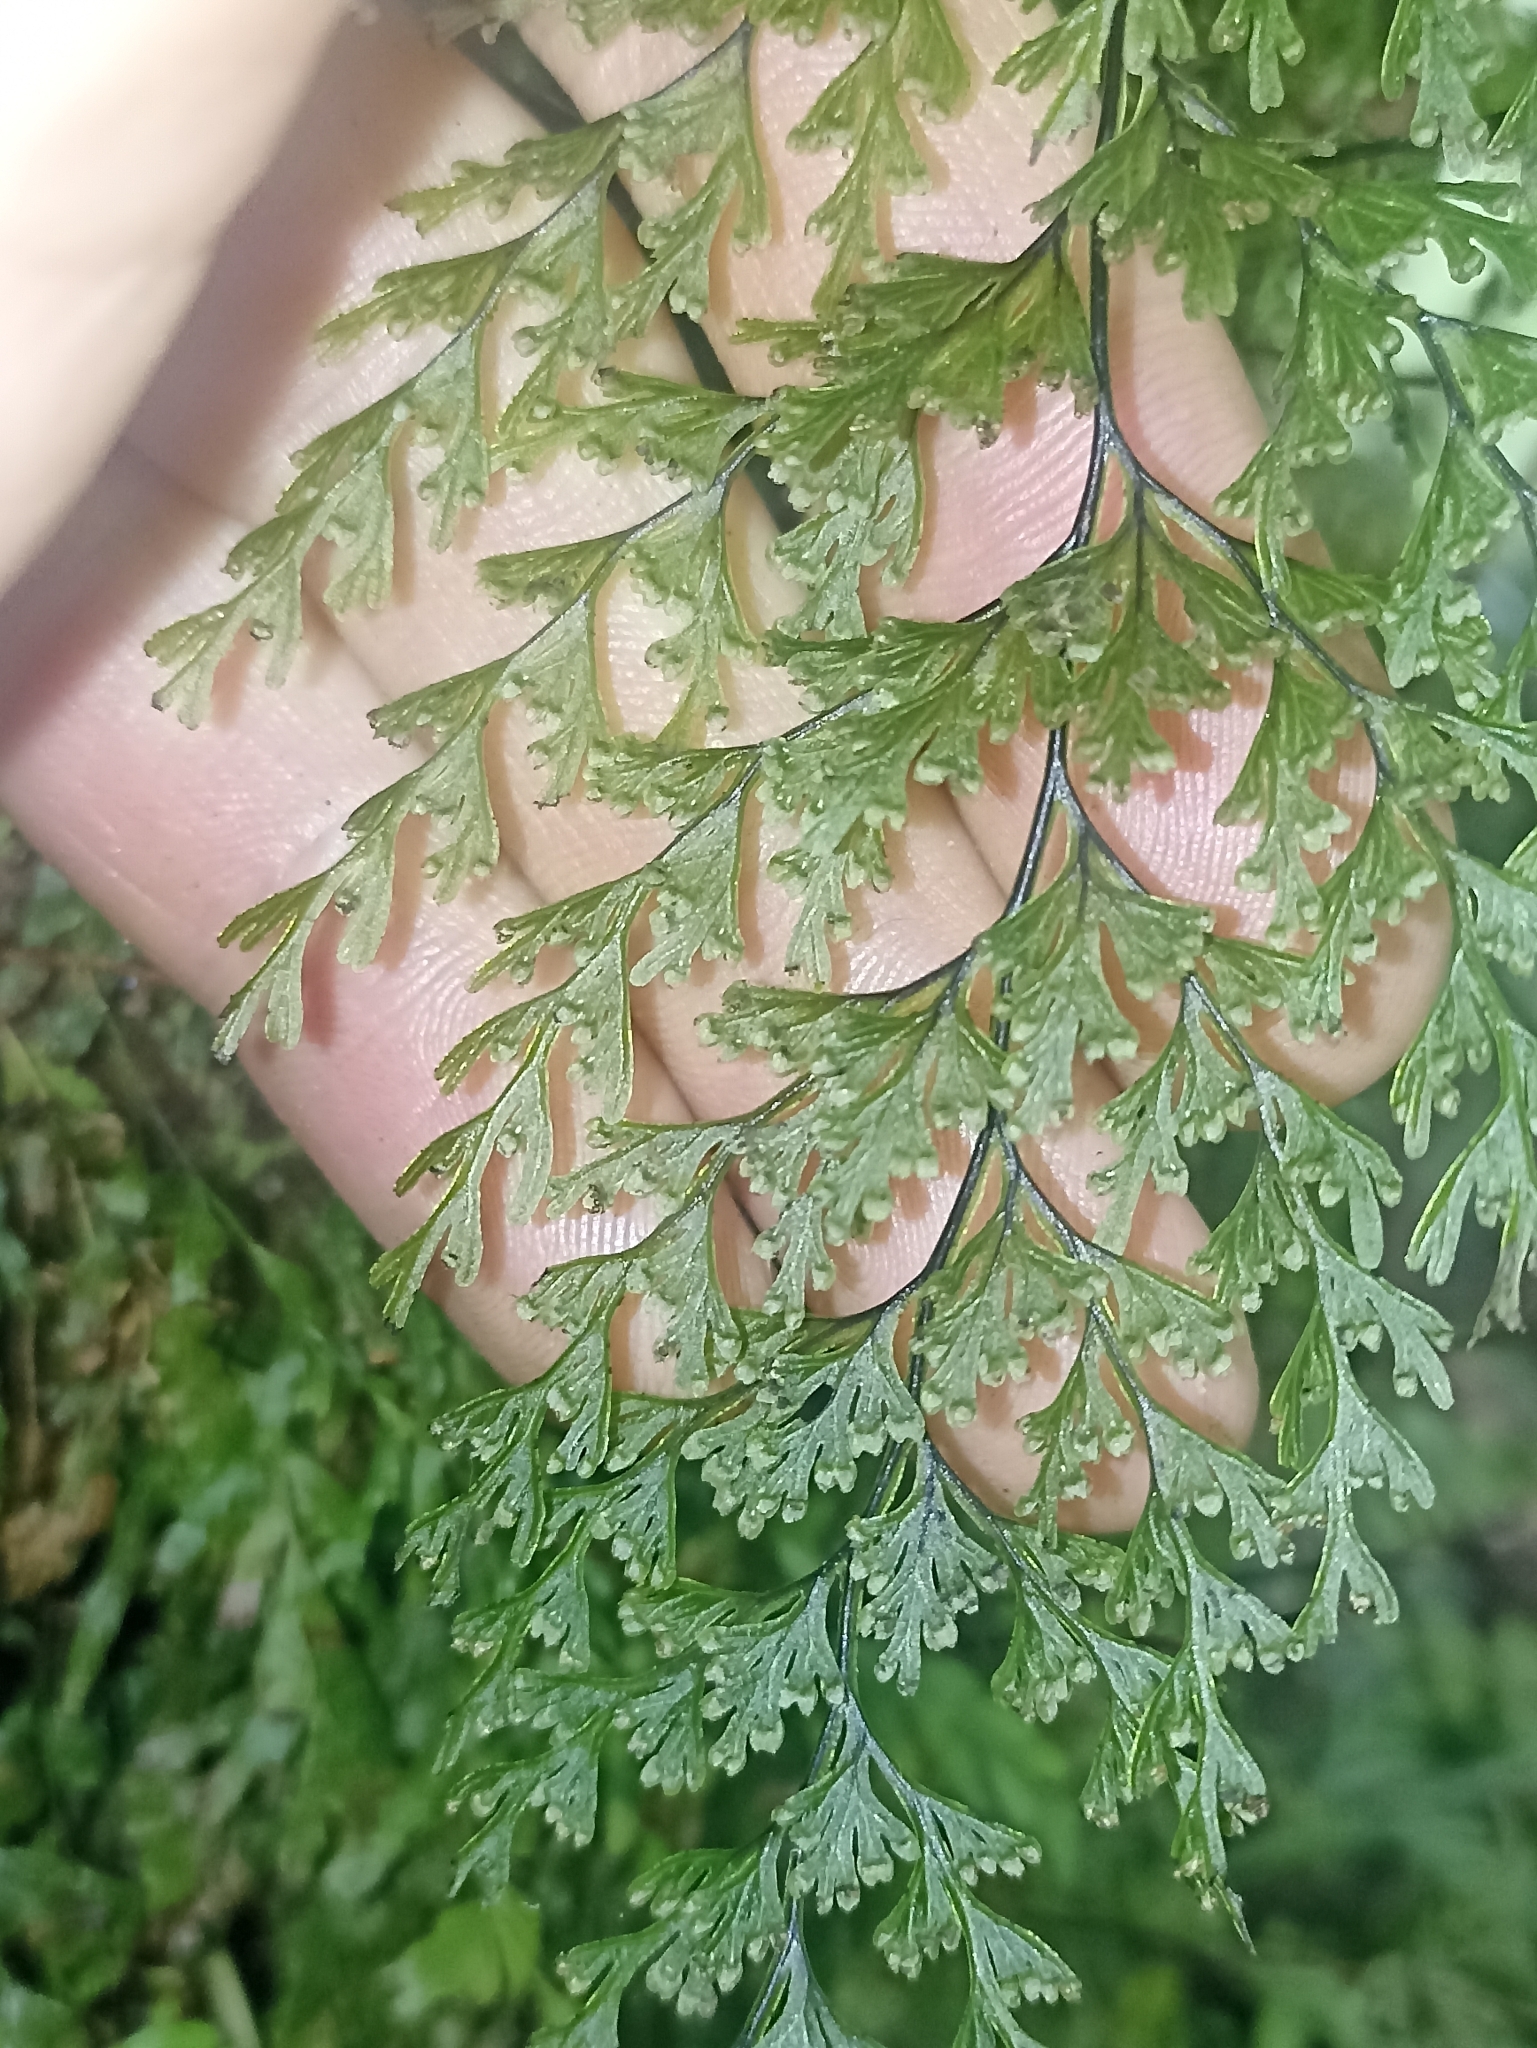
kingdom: Plantae
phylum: Tracheophyta
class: Polypodiopsida
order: Hymenophyllales
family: Hymenophyllaceae
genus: Hymenophyllum
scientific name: Hymenophyllum demissum
